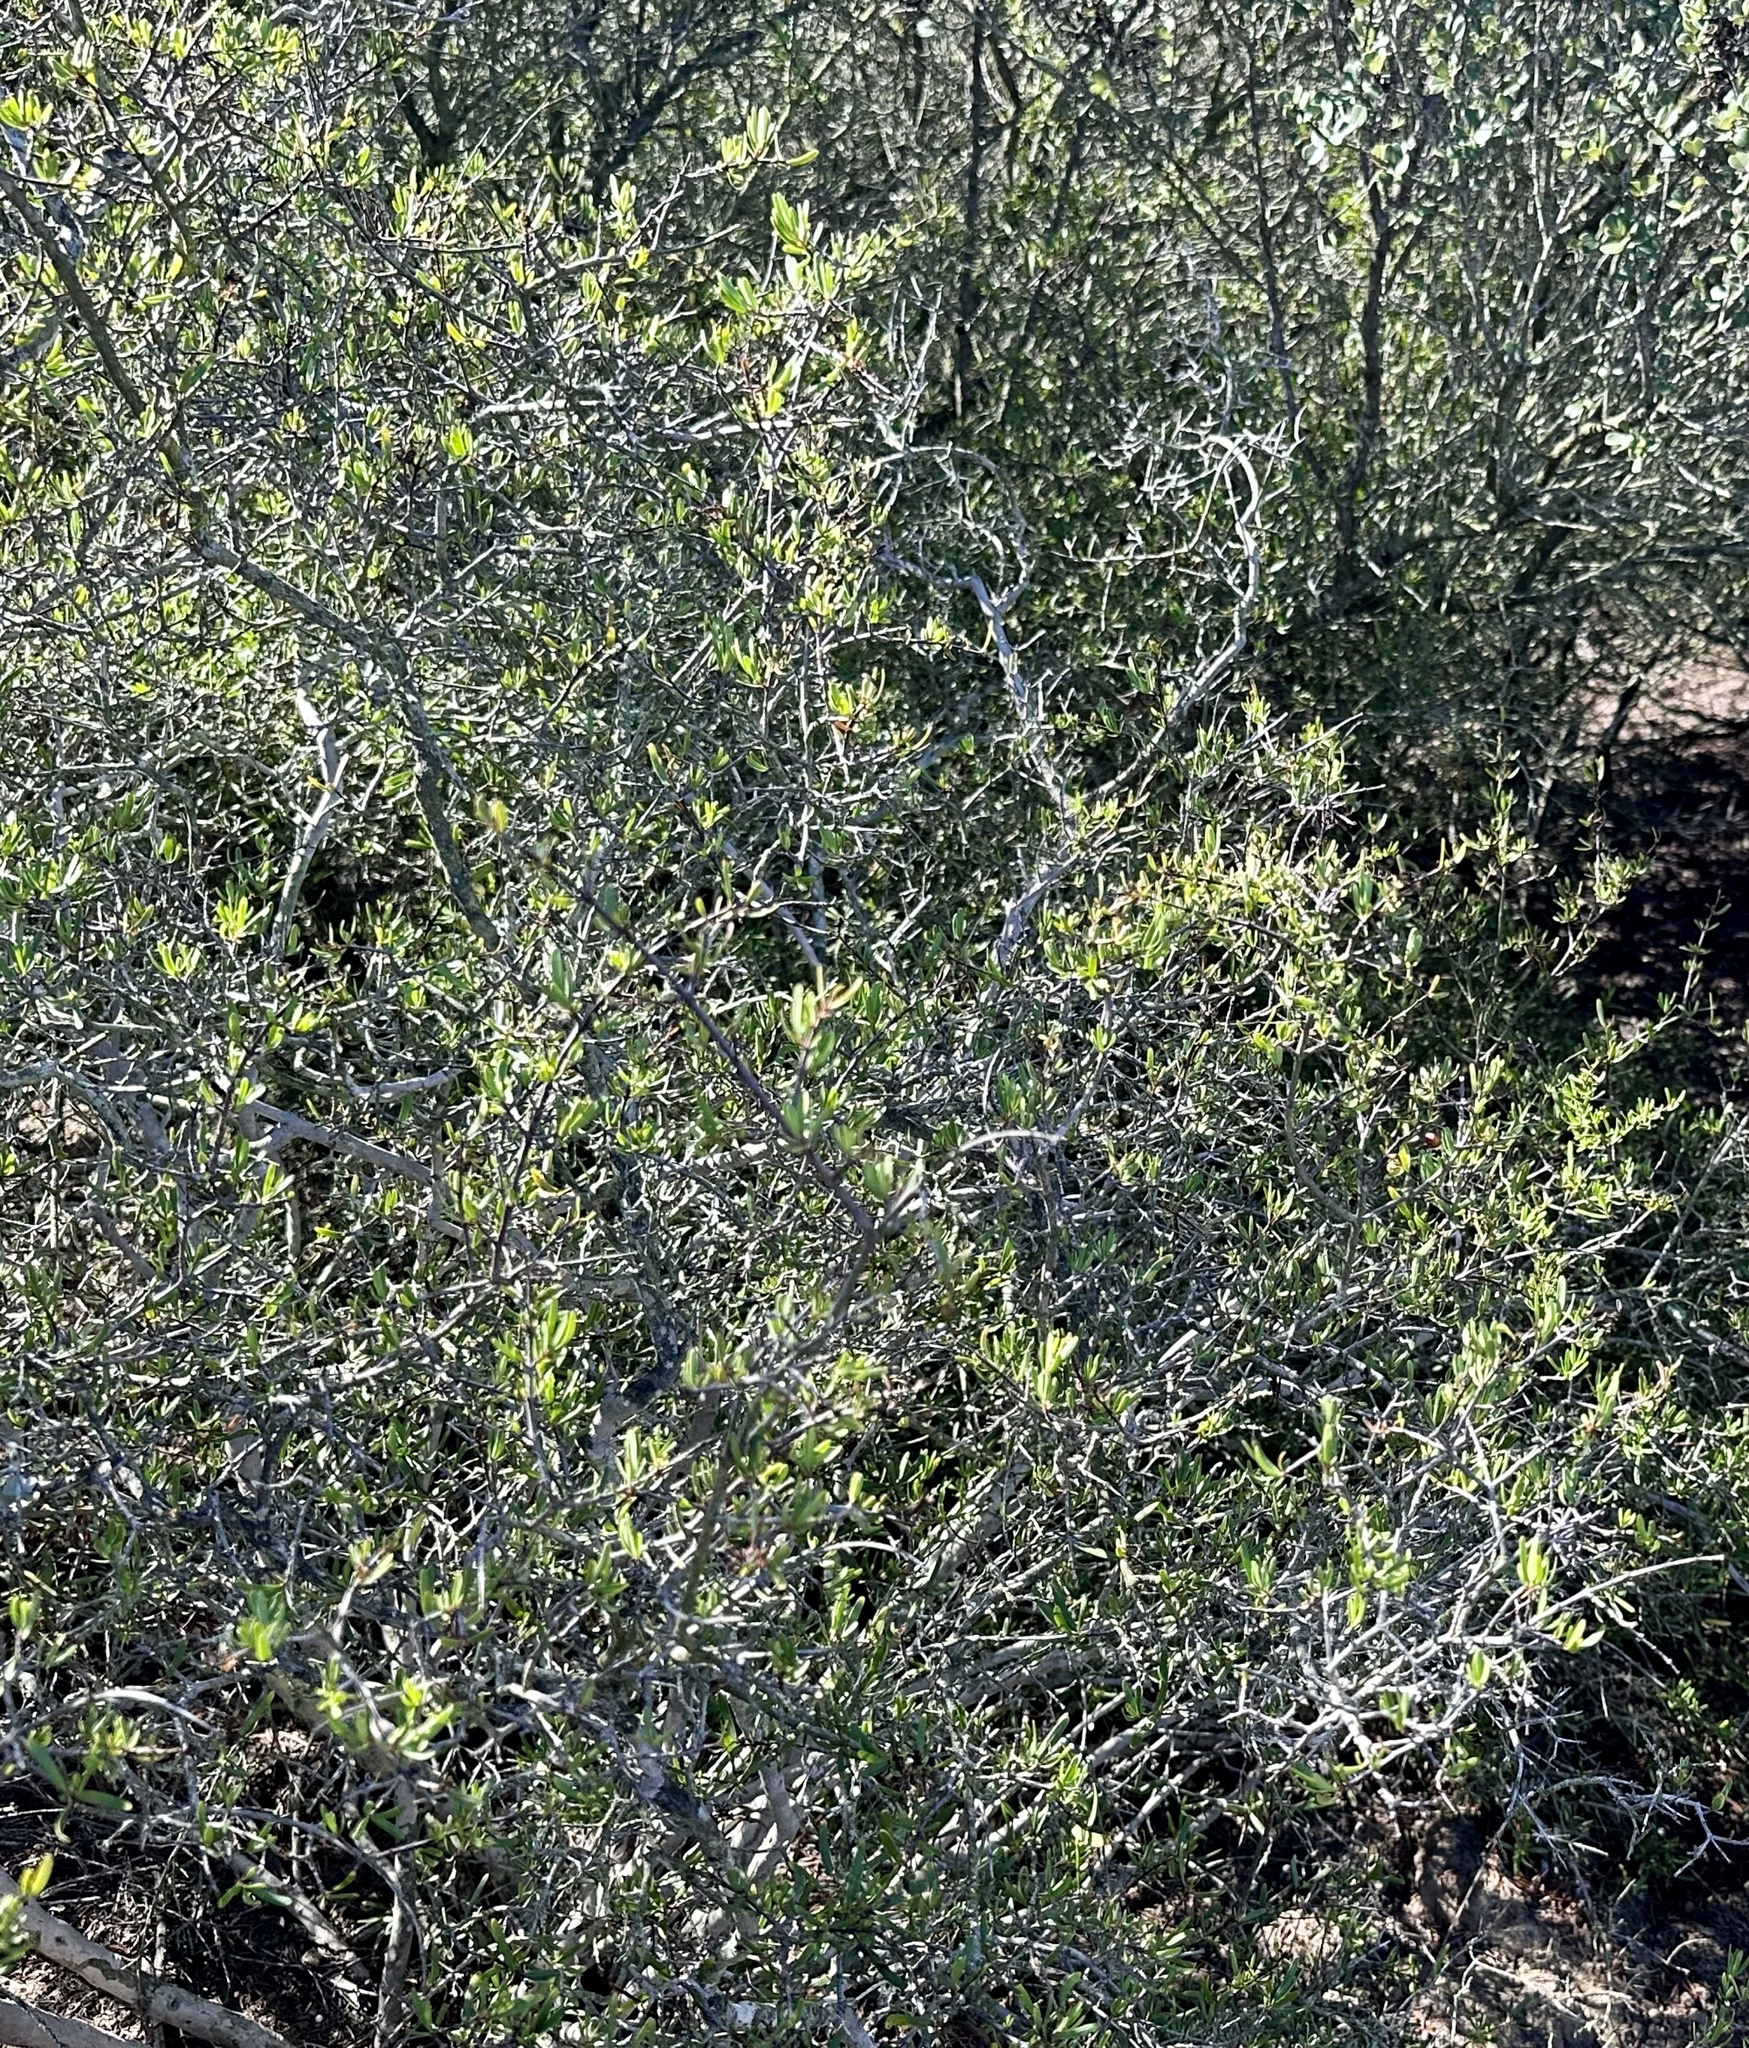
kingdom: Plantae
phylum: Tracheophyta
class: Magnoliopsida
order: Sapindales
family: Rutaceae
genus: Cneoridium
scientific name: Cneoridium dumosum
